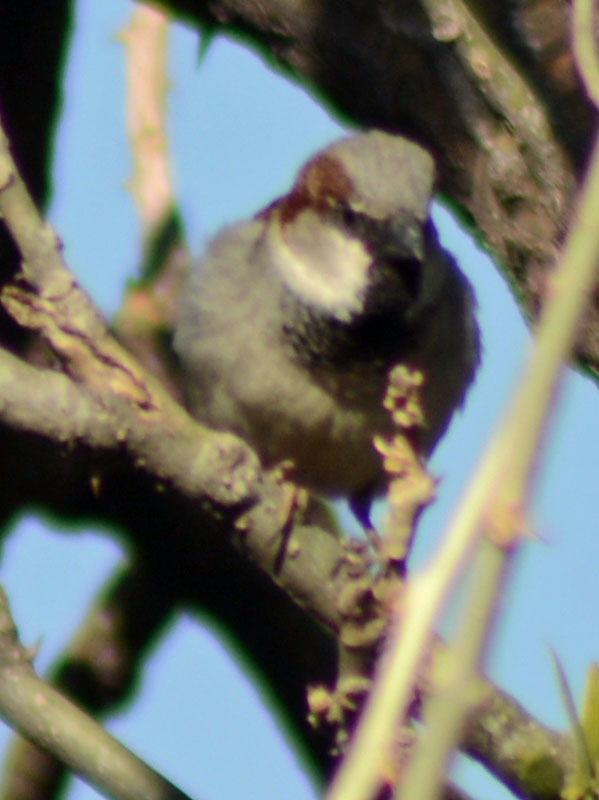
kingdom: Animalia
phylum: Chordata
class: Aves
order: Passeriformes
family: Passeridae
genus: Passer
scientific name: Passer domesticus
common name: House sparrow
